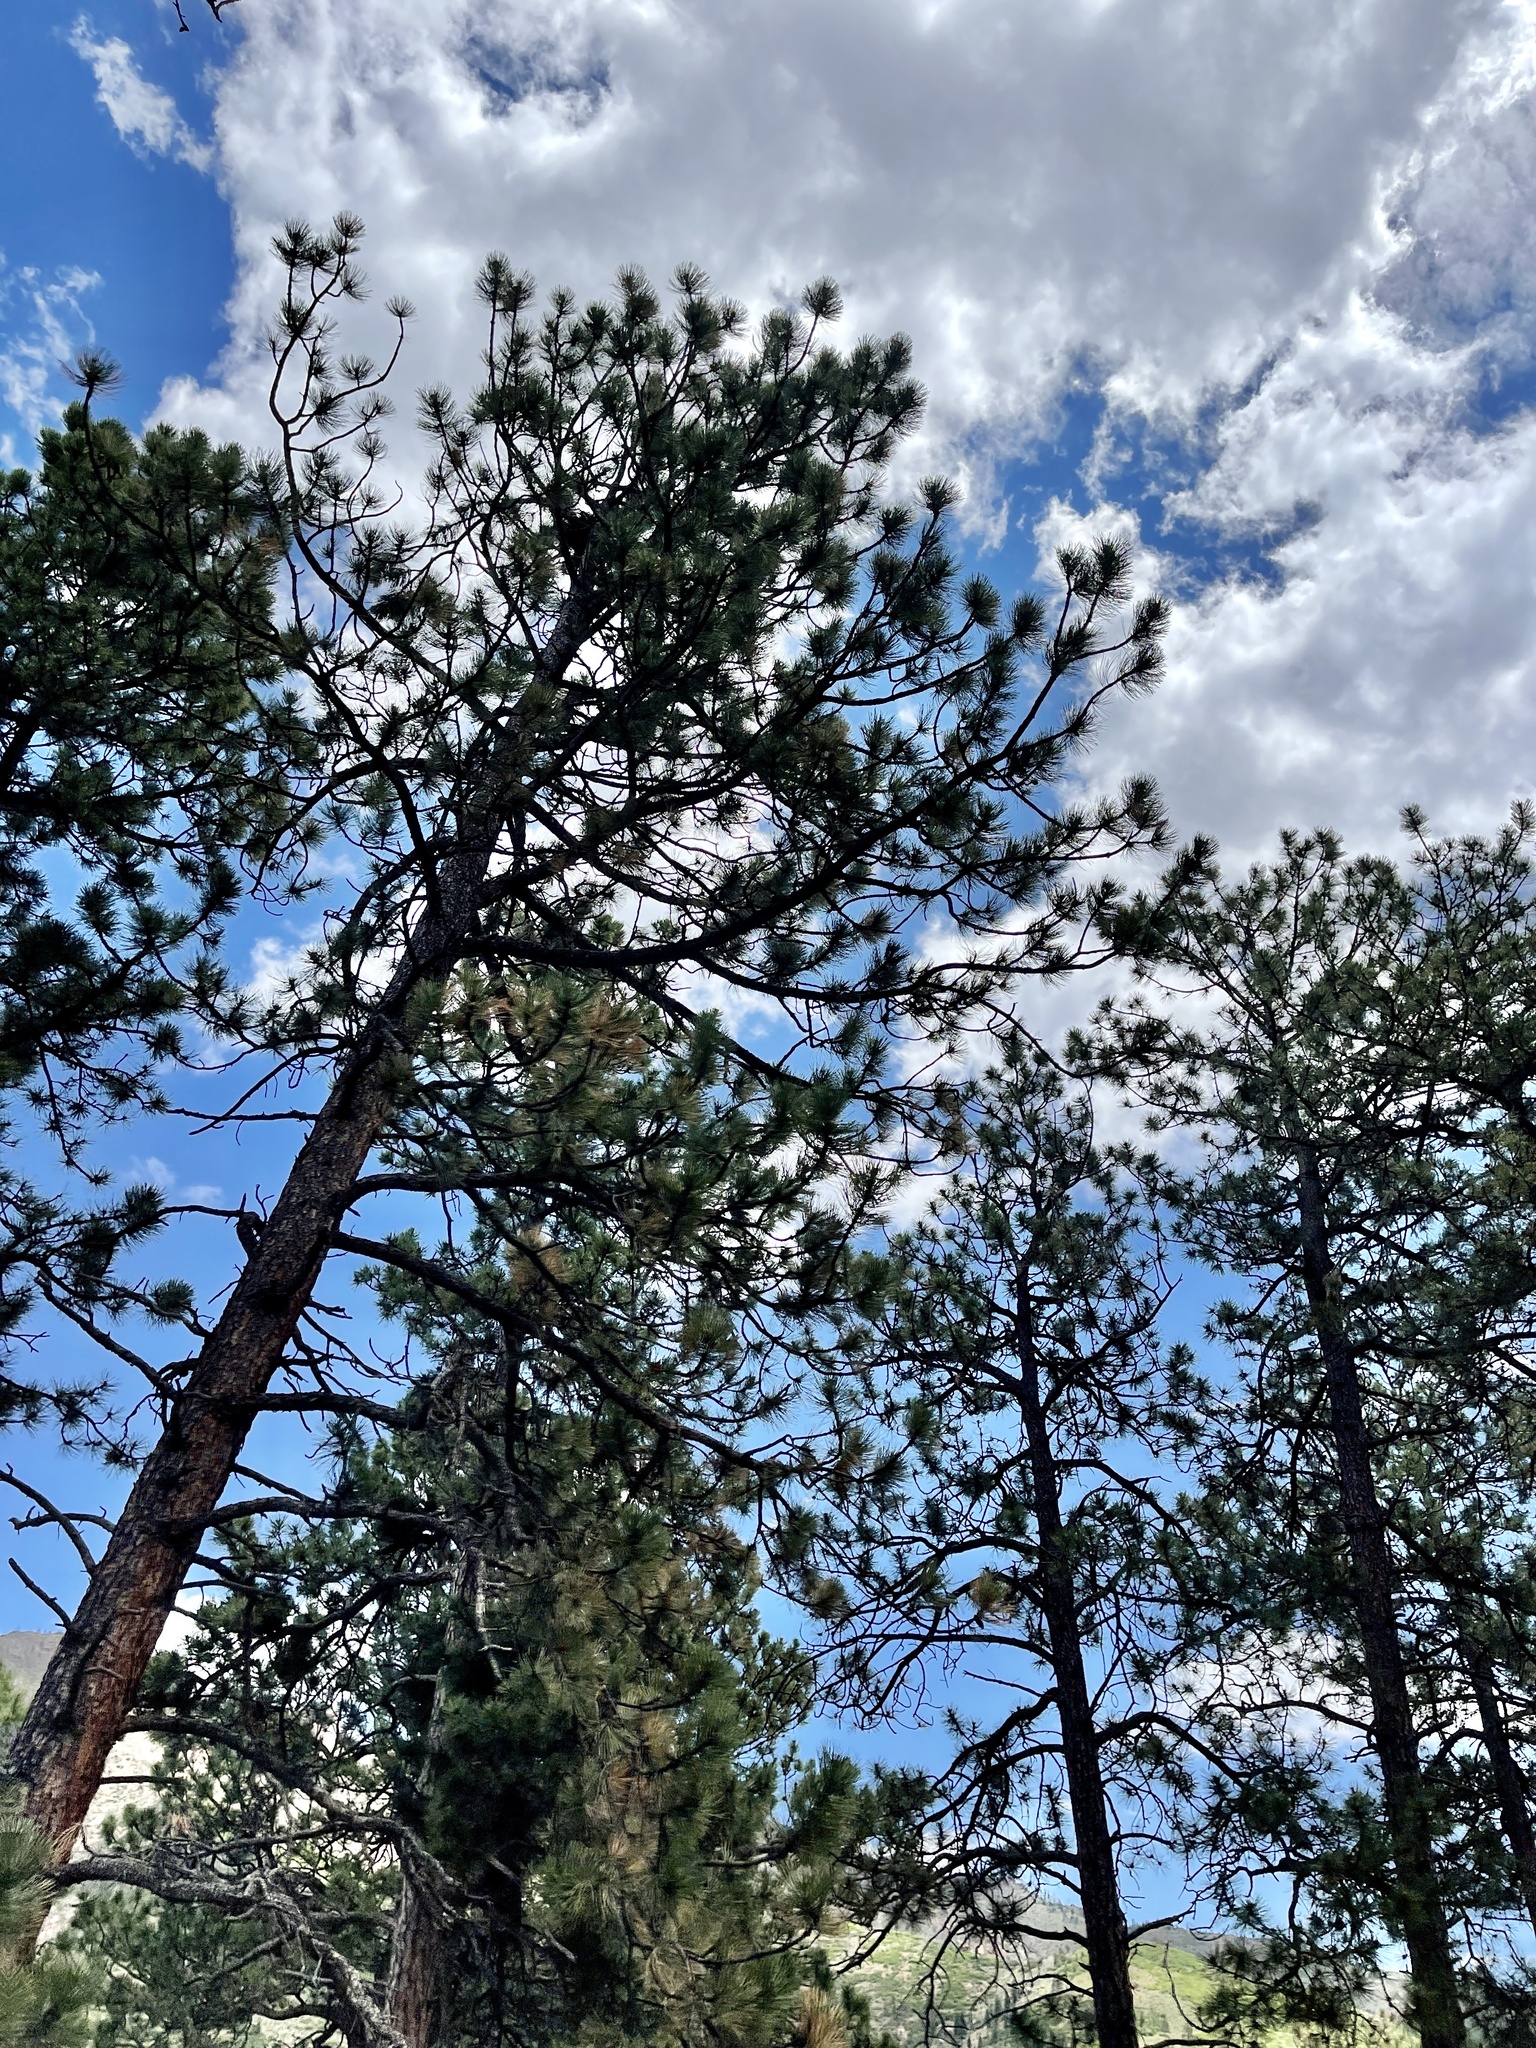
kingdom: Plantae
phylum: Tracheophyta
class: Pinopsida
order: Pinales
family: Pinaceae
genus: Pinus
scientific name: Pinus ponderosa
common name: Western yellow-pine
